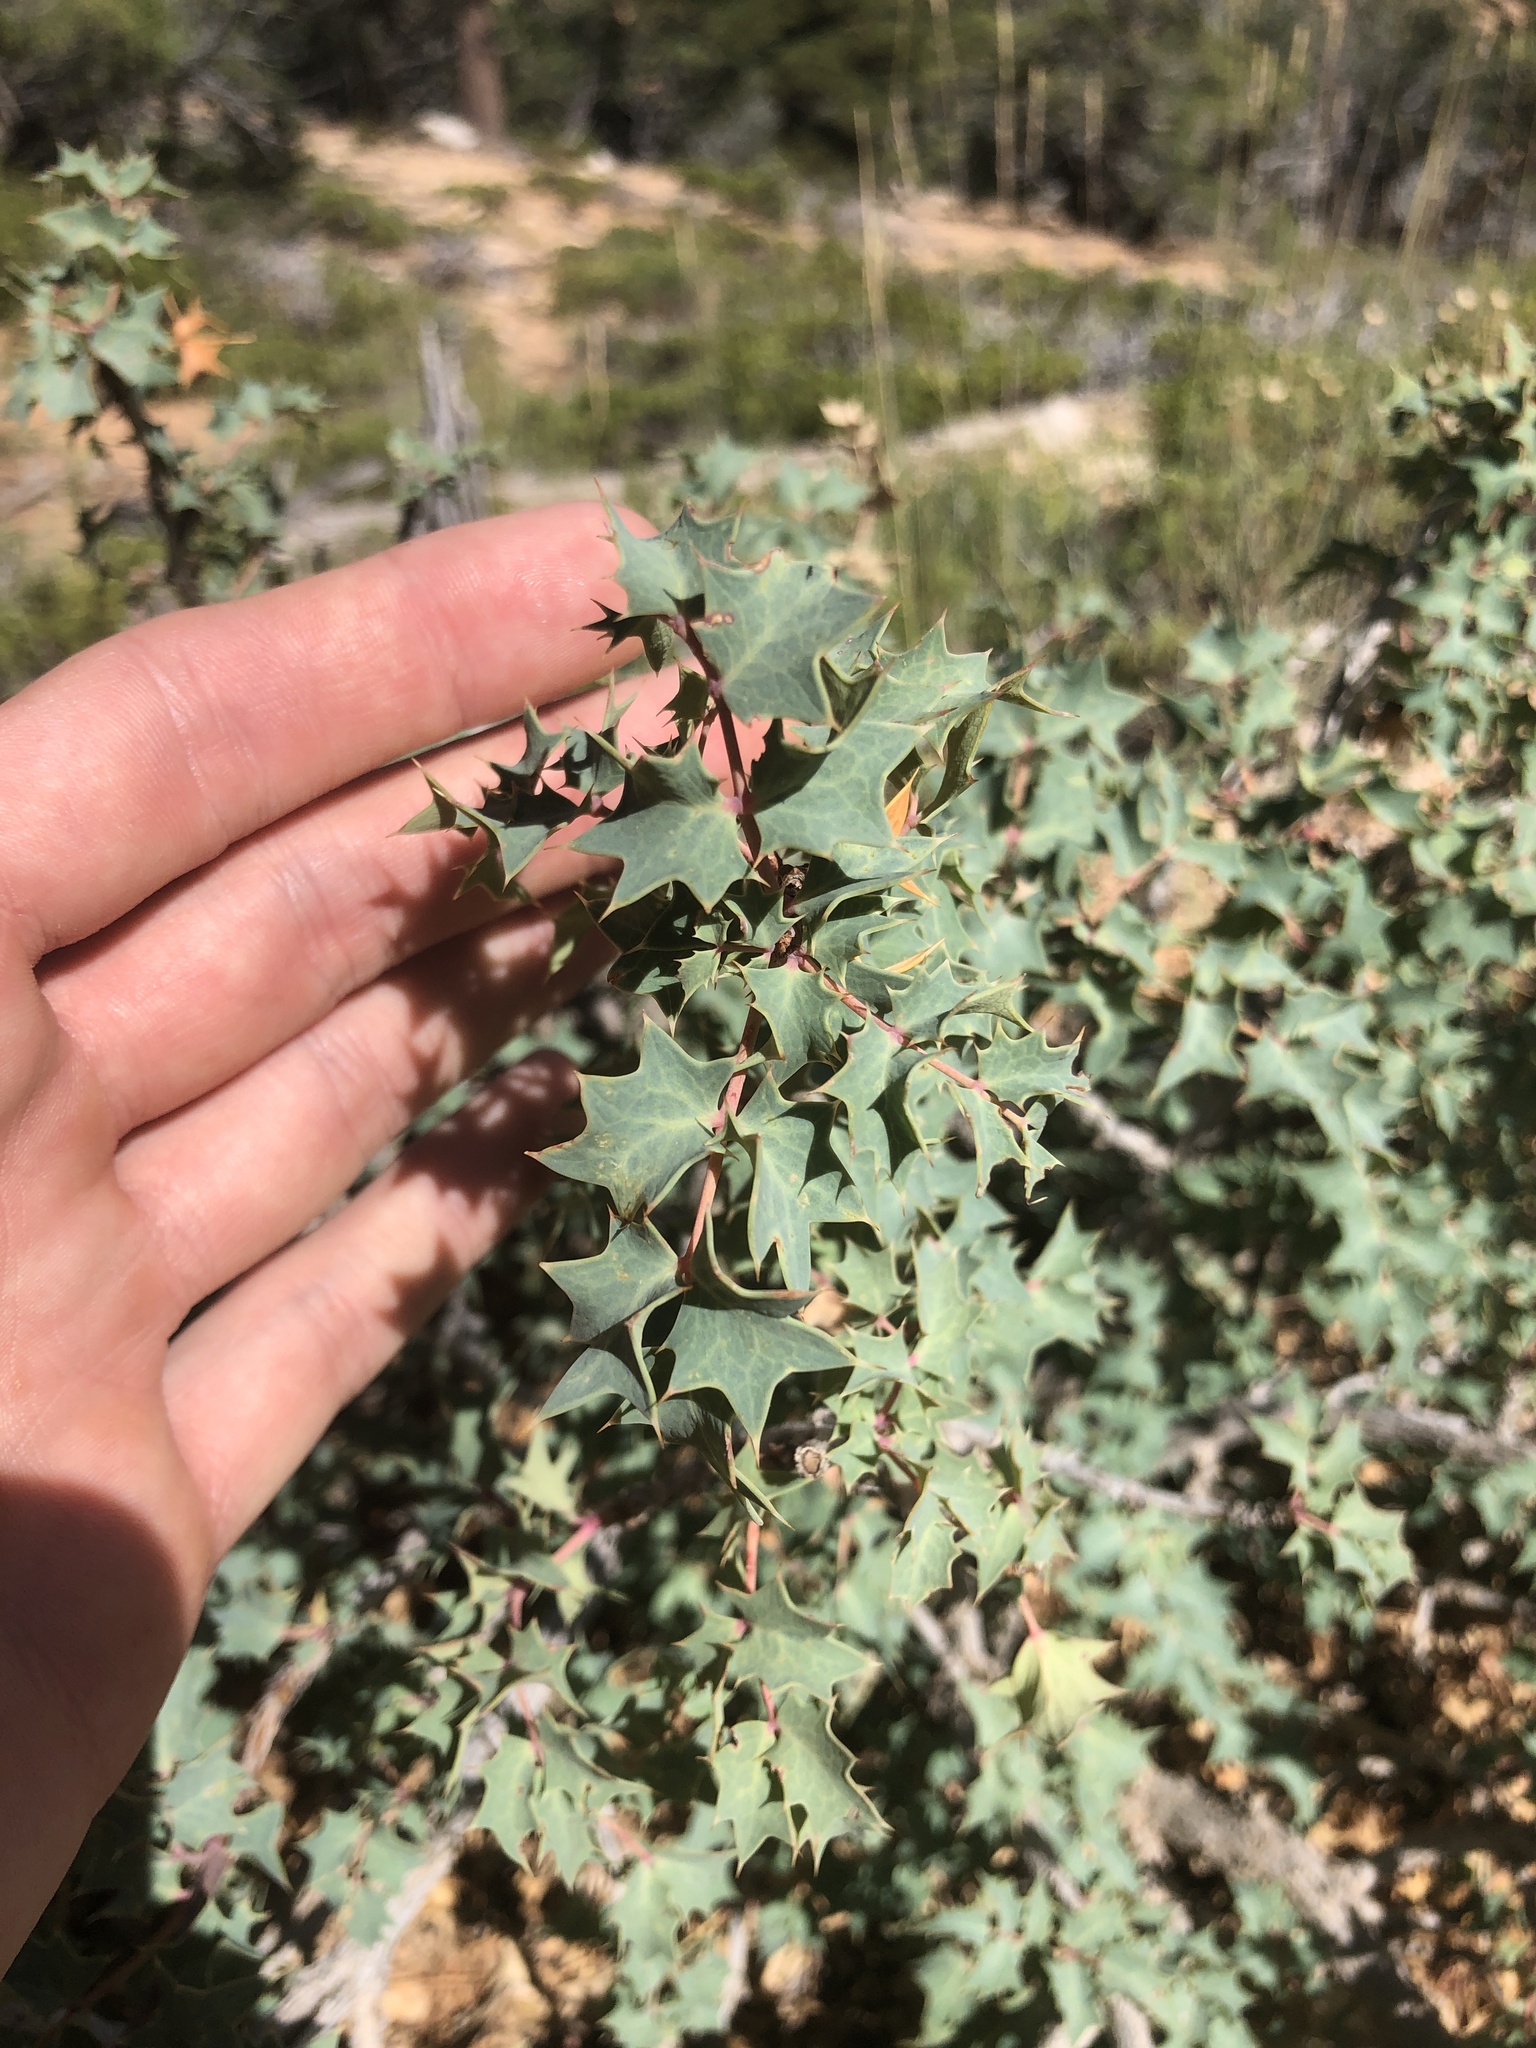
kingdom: Plantae
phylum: Tracheophyta
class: Magnoliopsida
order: Ranunculales
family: Berberidaceae
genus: Alloberberis
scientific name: Alloberberis fremontii
